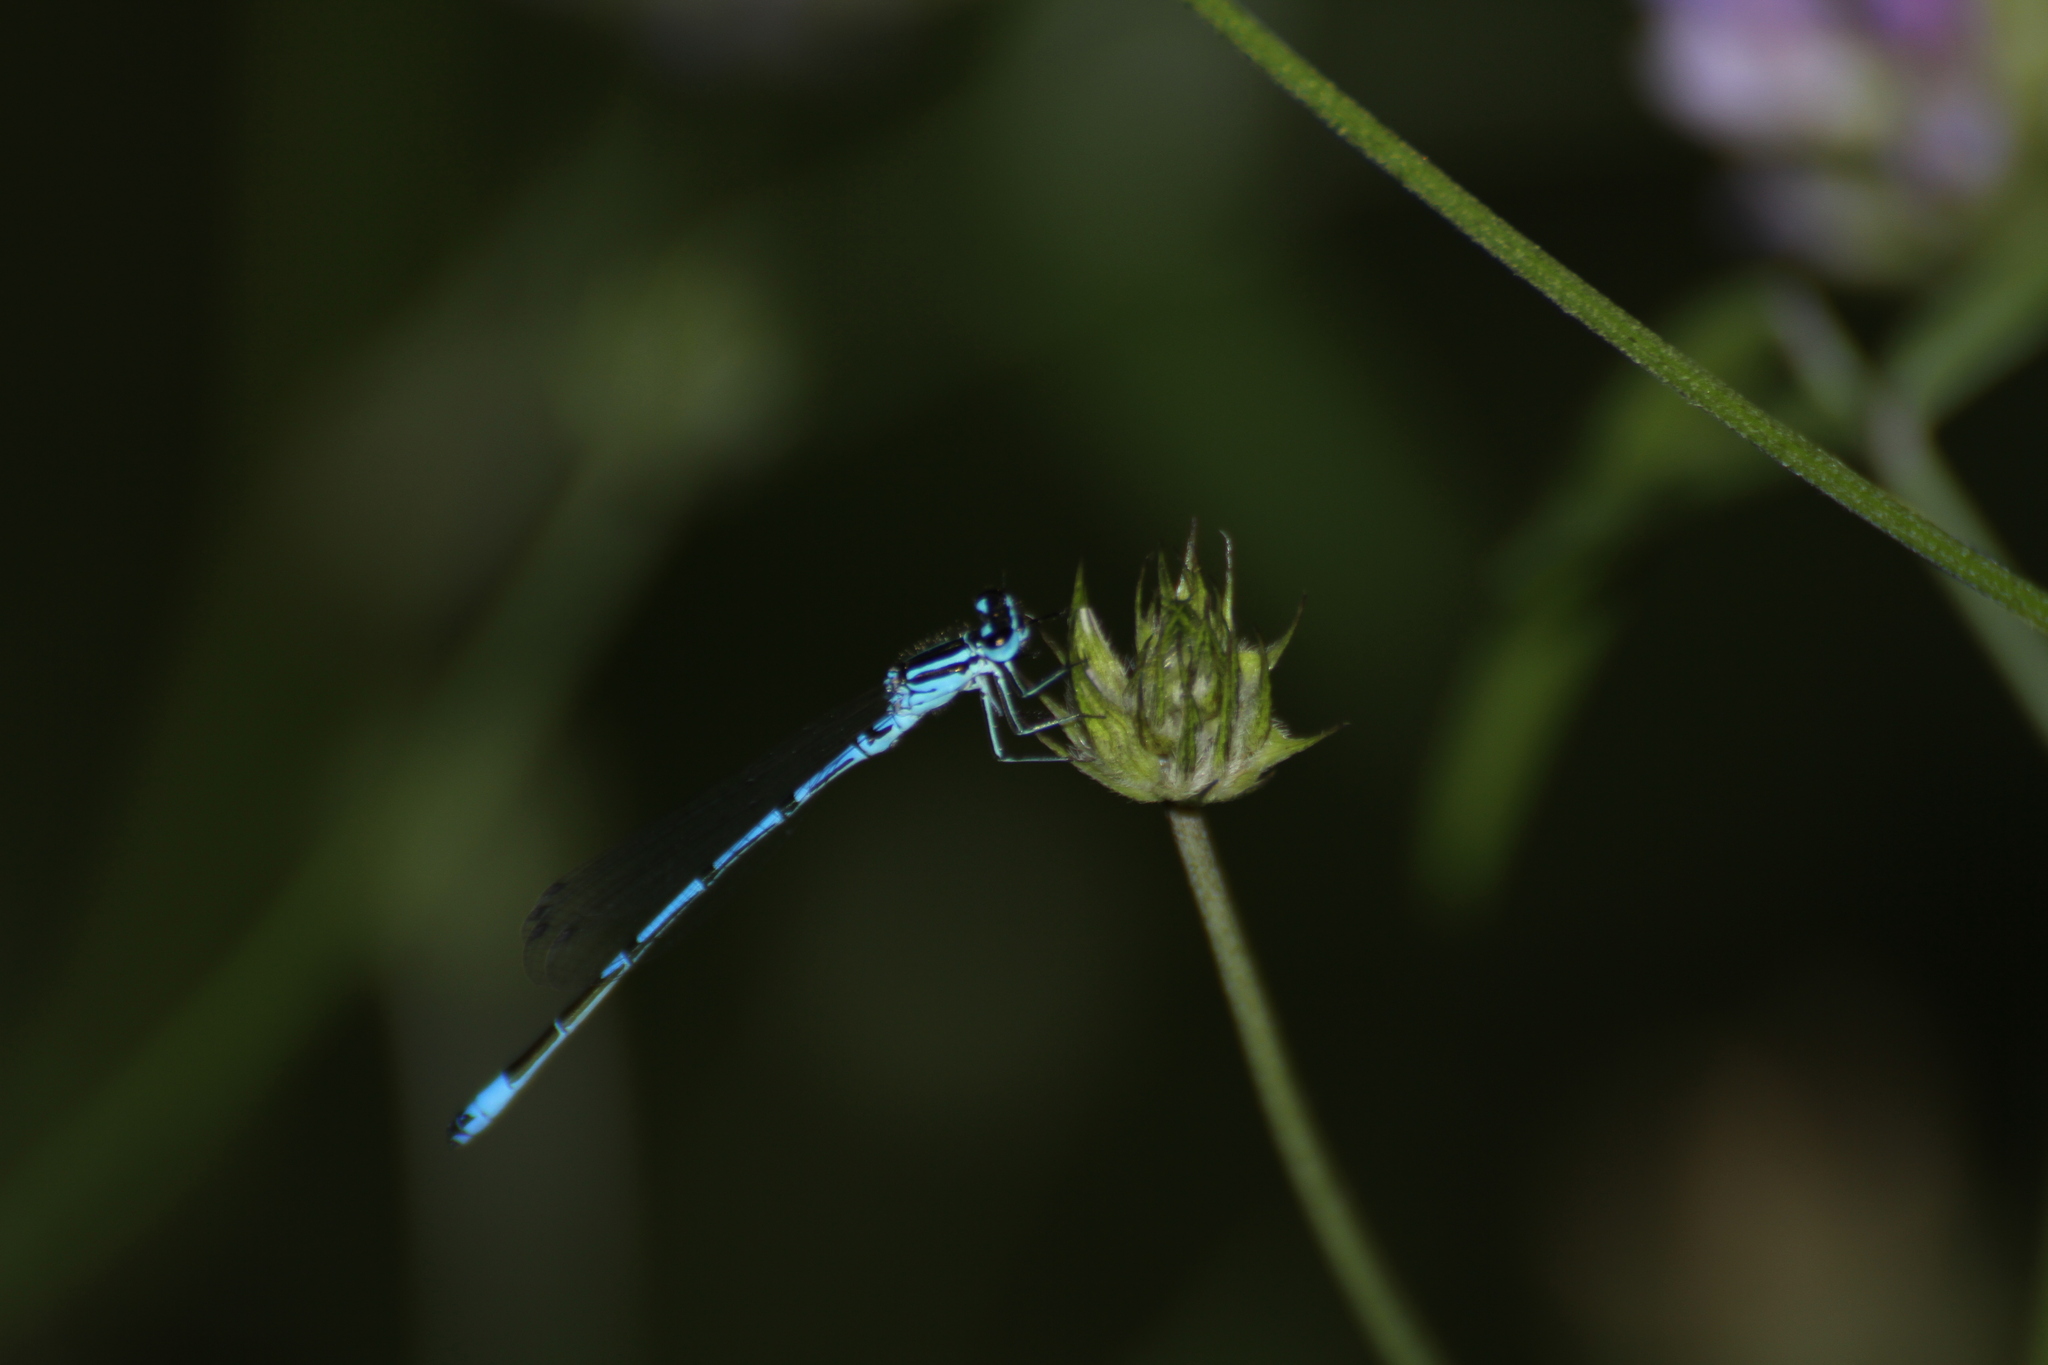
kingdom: Animalia
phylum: Arthropoda
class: Insecta
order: Odonata
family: Coenagrionidae
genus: Coenagrion
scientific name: Coenagrion puella
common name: Azure damselfly
